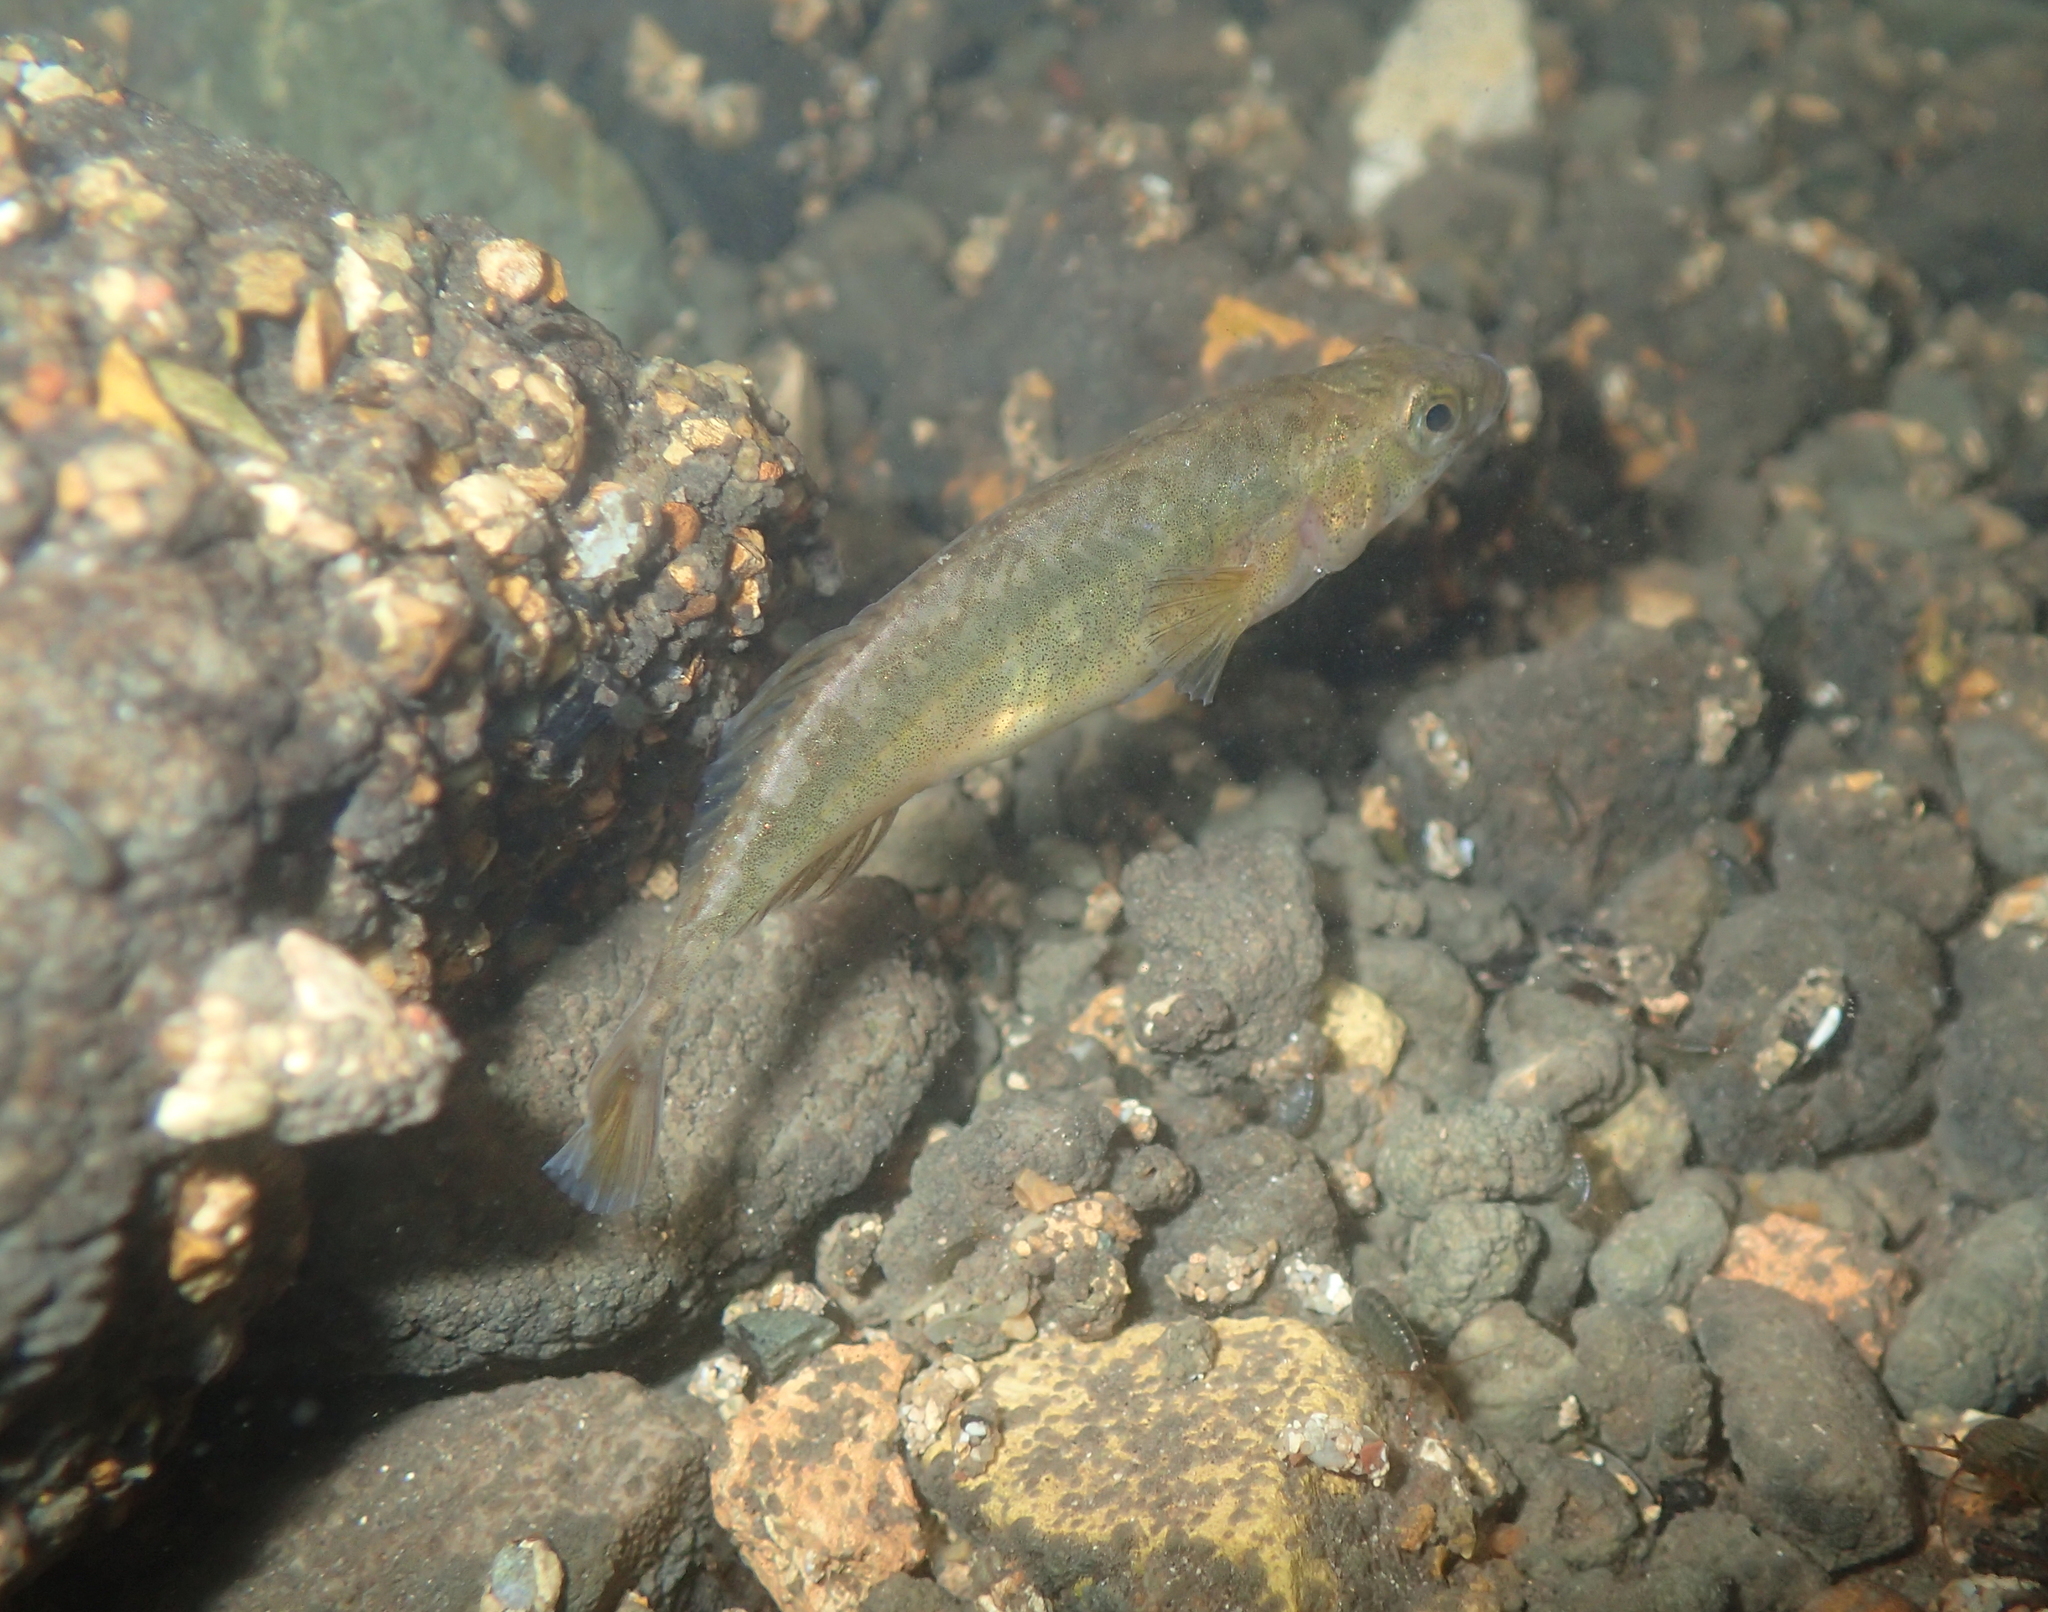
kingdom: Animalia
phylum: Chordata
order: Gasterosteiformes
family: Gasterosteidae
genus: Pungitius
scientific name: Pungitius laevis
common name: Smoothtail ninespine stickleback
